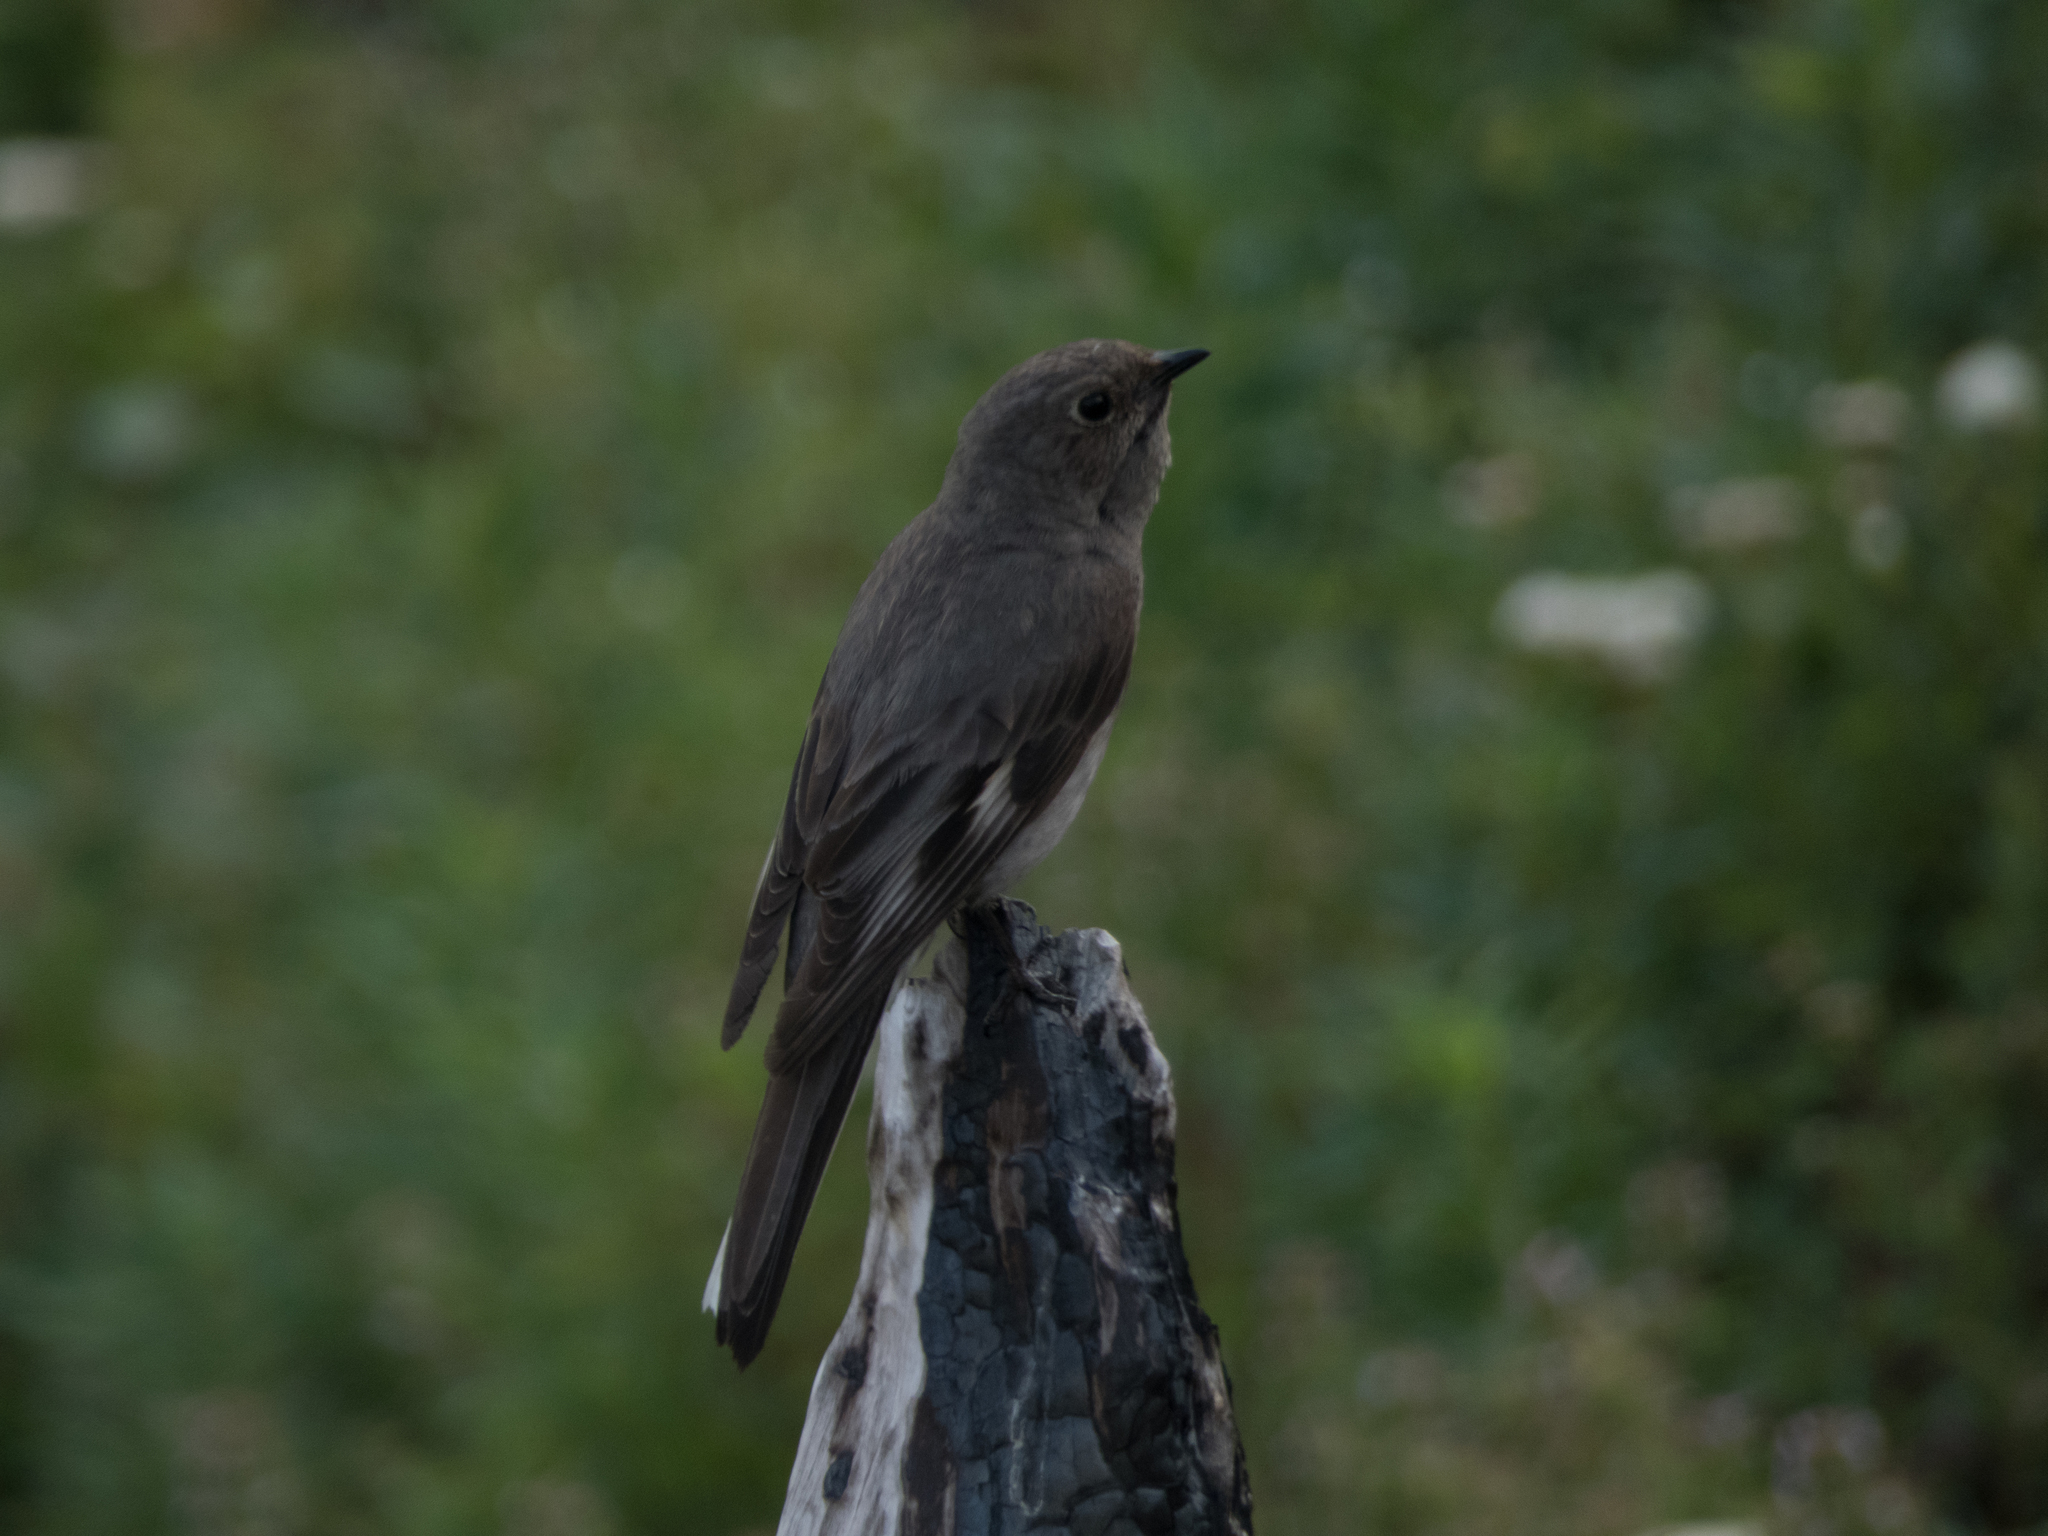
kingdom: Animalia
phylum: Chordata
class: Aves
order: Passeriformes
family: Turdidae
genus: Myadestes
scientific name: Myadestes townsendi
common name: Townsend's solitaire
